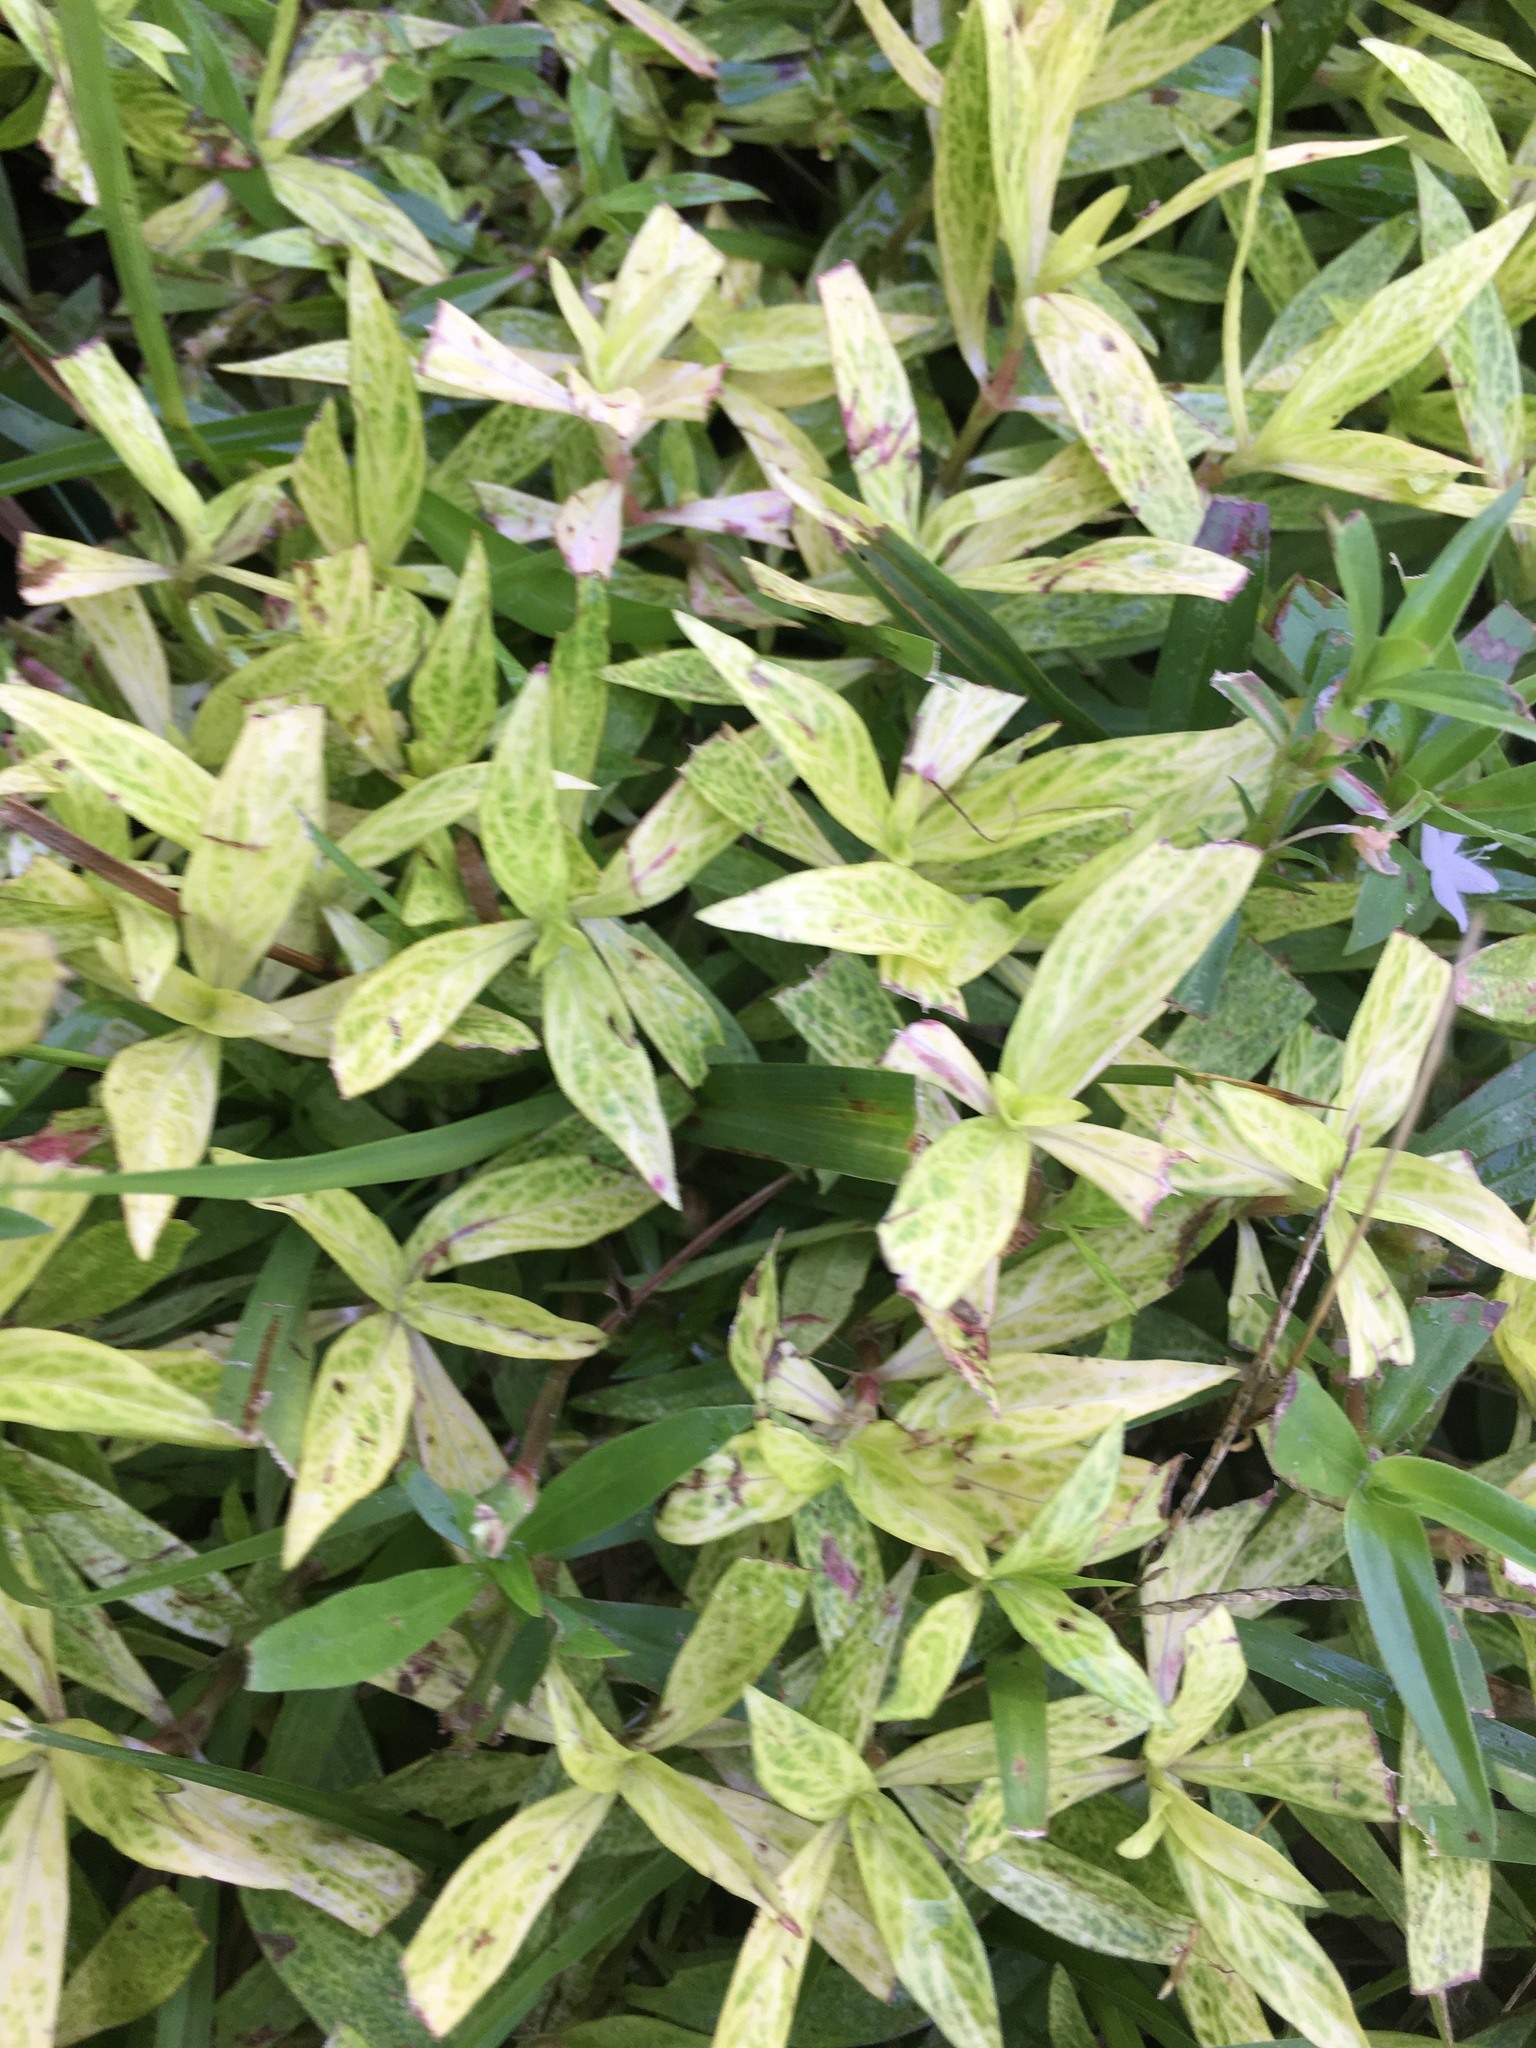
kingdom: Viruses
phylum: Kitrinoviricota
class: Alsuviricetes
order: Martellivirales
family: Closteroviridae
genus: Crinivirus
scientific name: Crinivirus Diodia vein chlorosis virus
